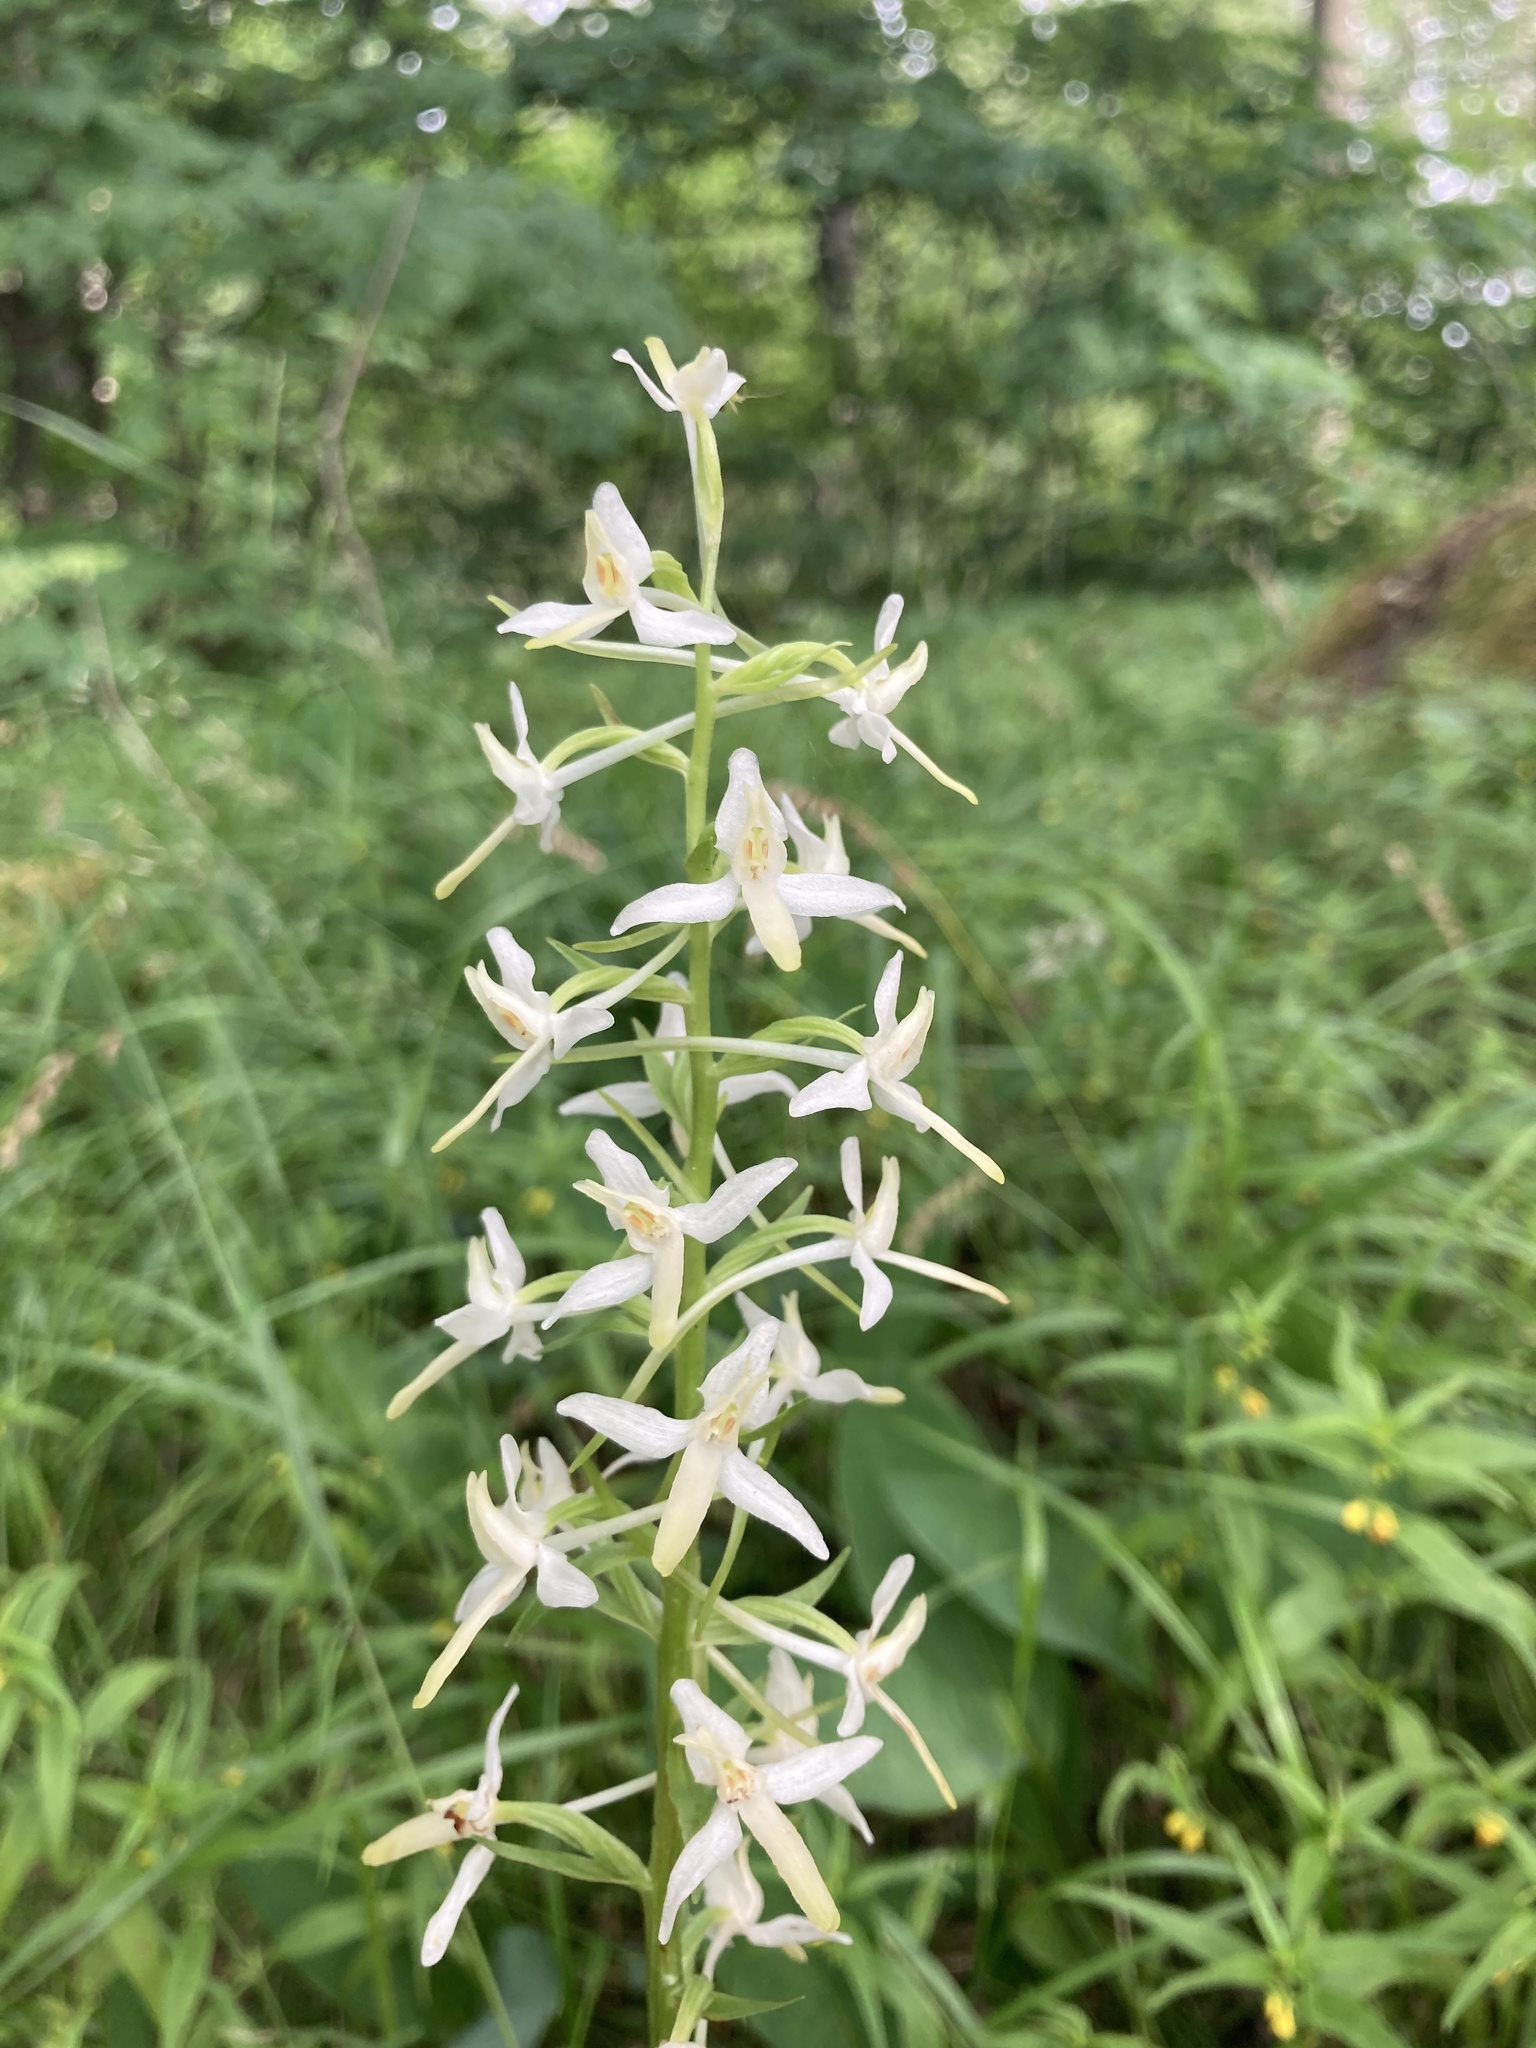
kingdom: Plantae
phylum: Tracheophyta
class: Liliopsida
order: Asparagales
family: Orchidaceae
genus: Platanthera
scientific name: Platanthera bifolia
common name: Lesser butterfly-orchid
